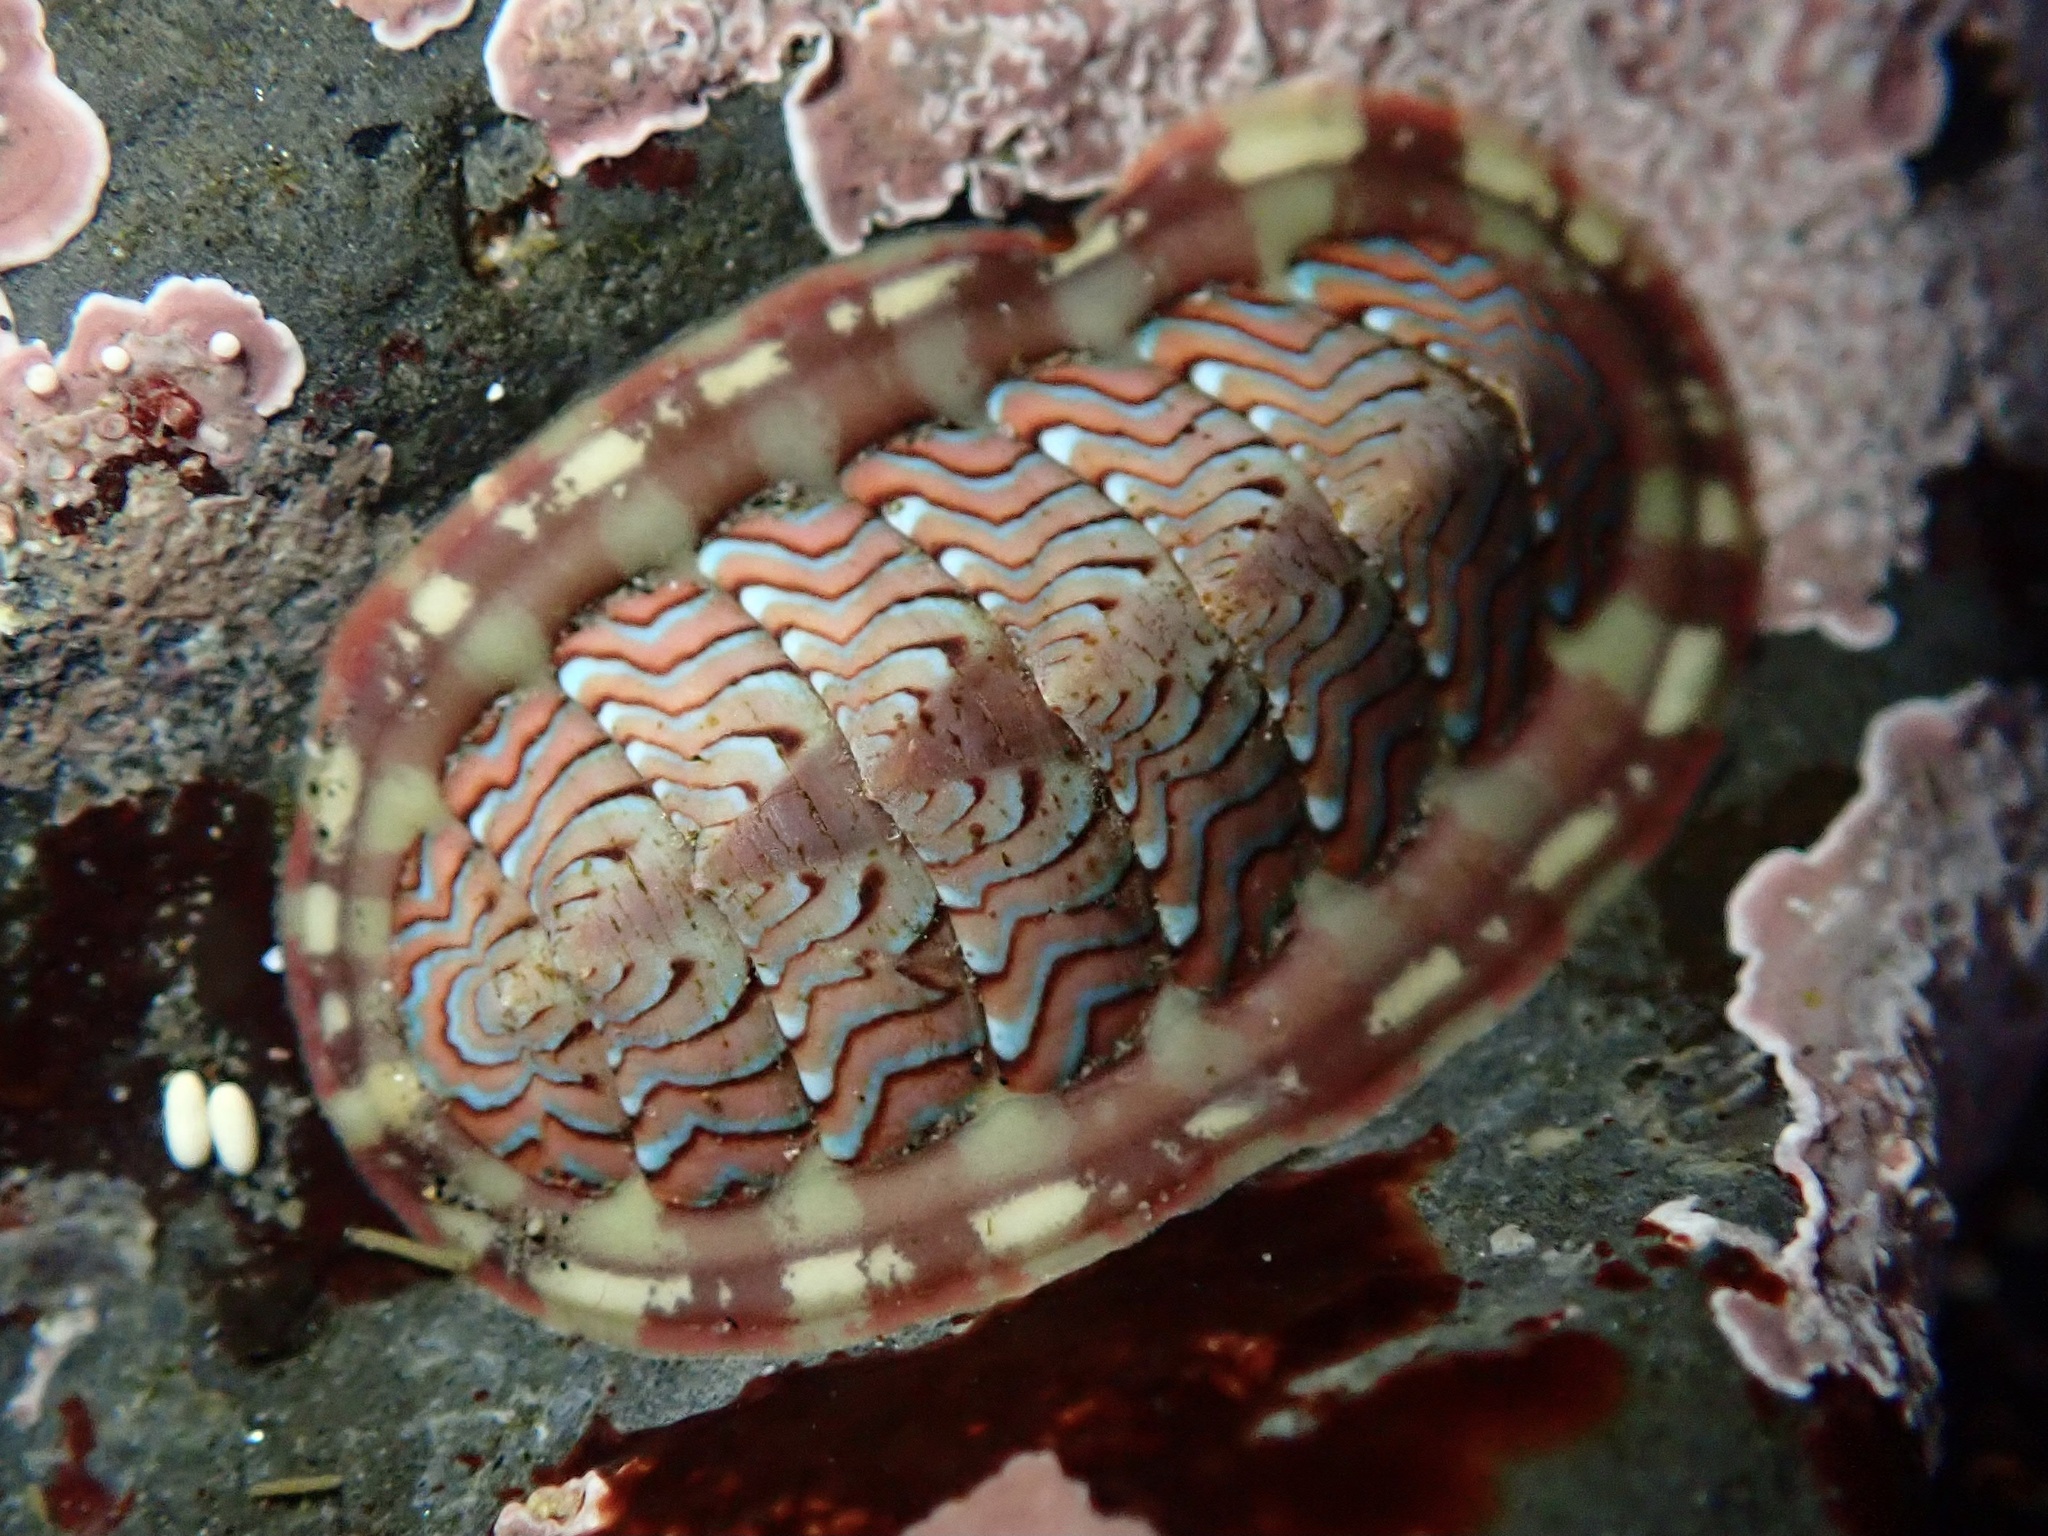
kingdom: Animalia
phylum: Mollusca
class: Polyplacophora
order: Chitonida
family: Tonicellidae
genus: Tonicella
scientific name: Tonicella lokii
